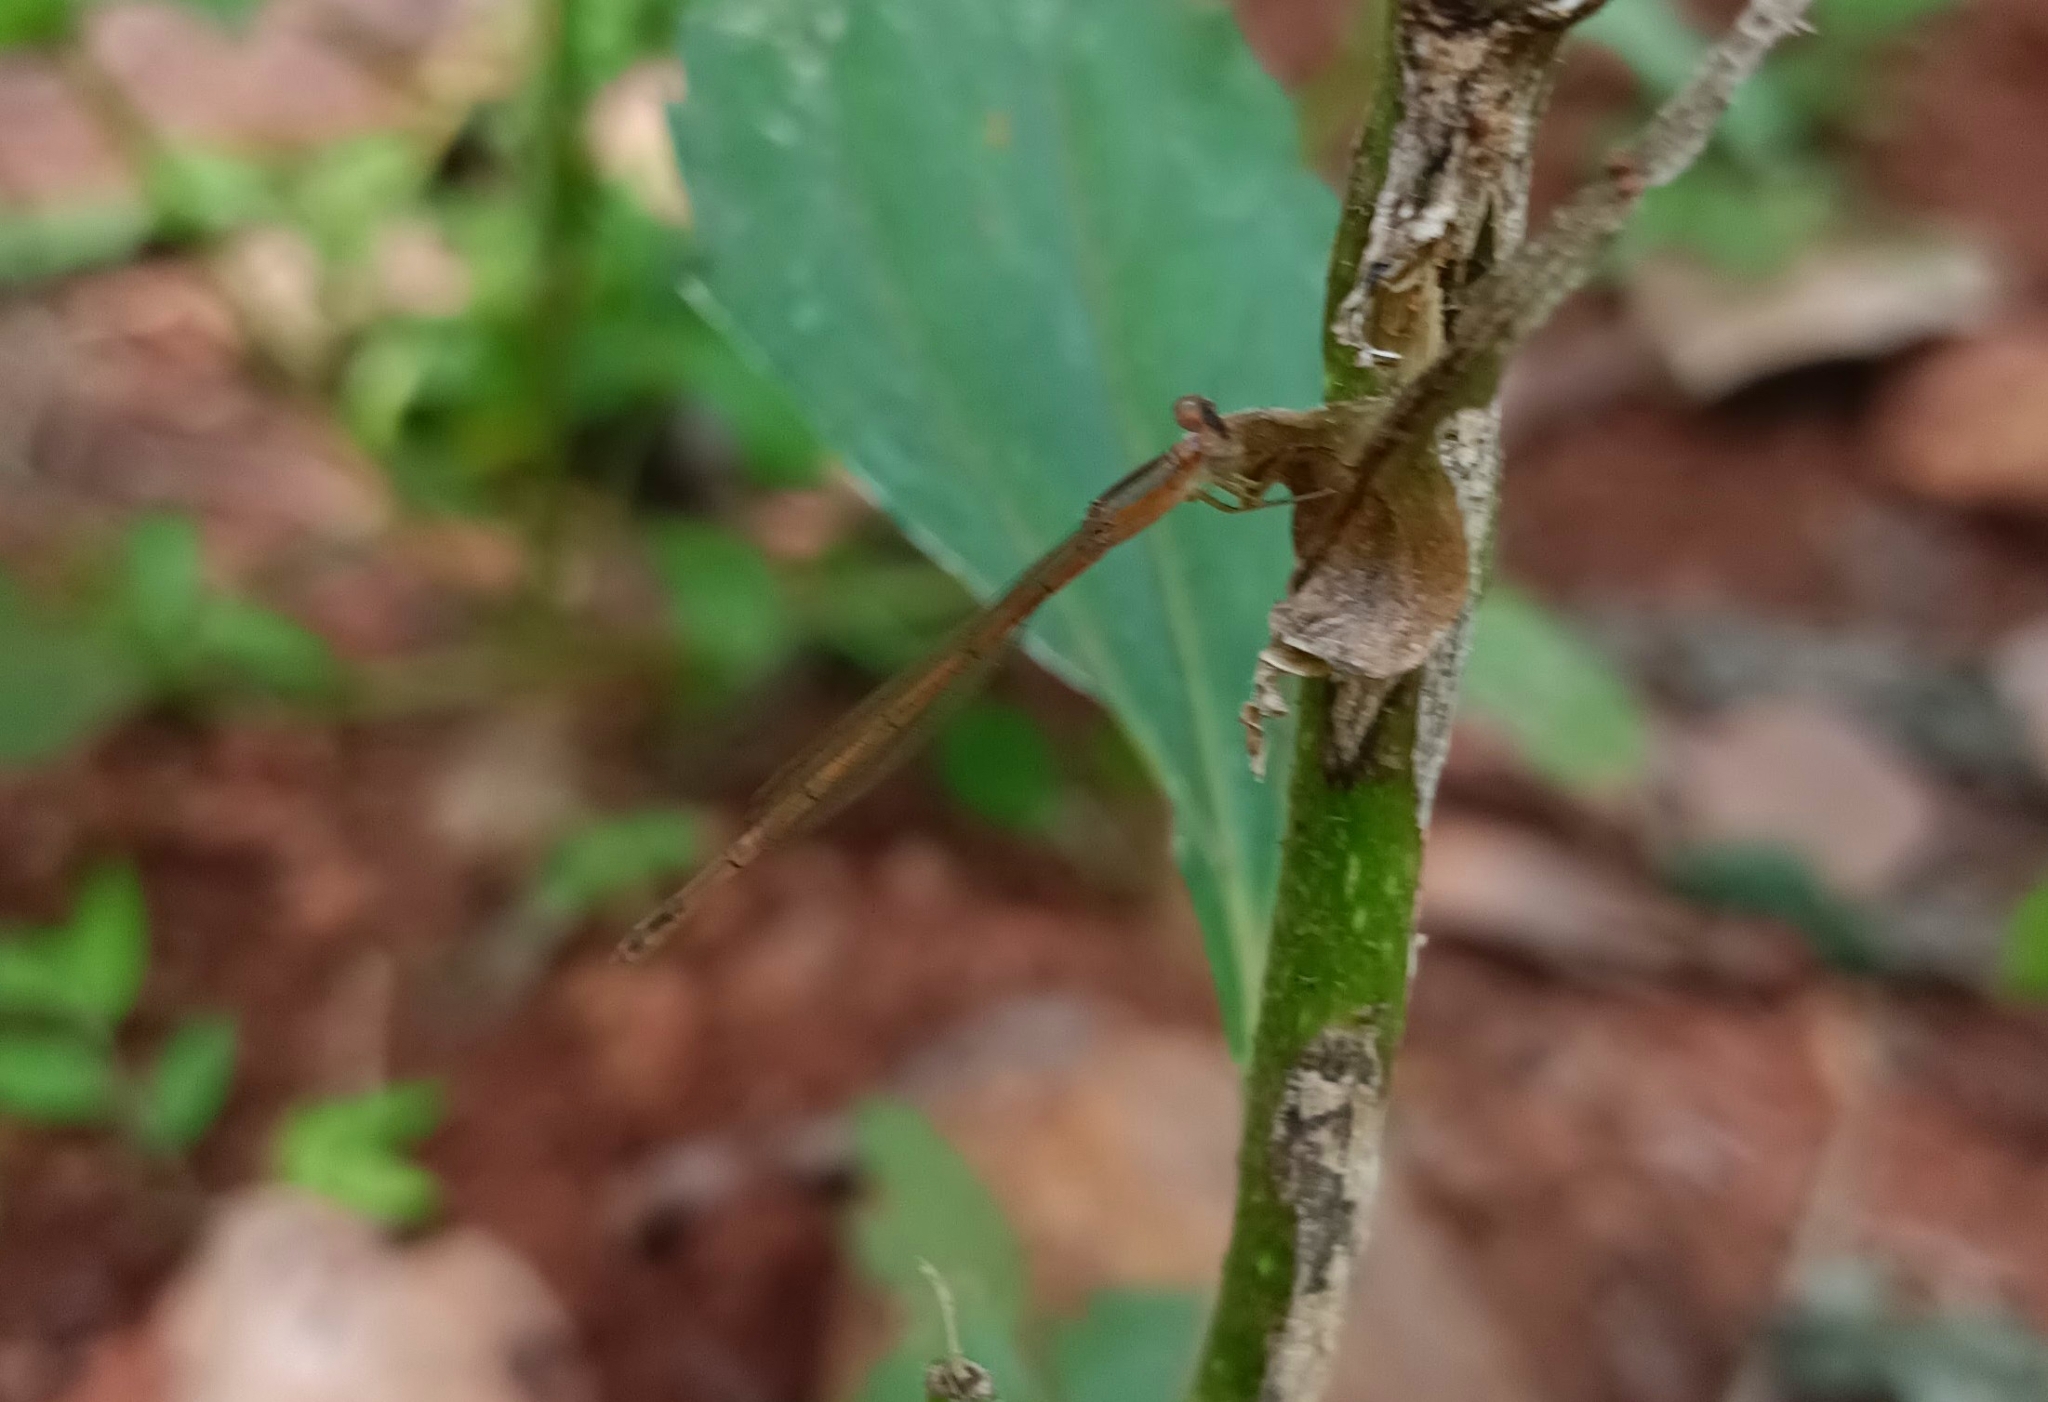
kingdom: Animalia
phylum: Arthropoda
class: Insecta
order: Odonata
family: Coenagrionidae
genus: Agriocnemis
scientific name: Agriocnemis pygmaea
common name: Pygmy wisp
